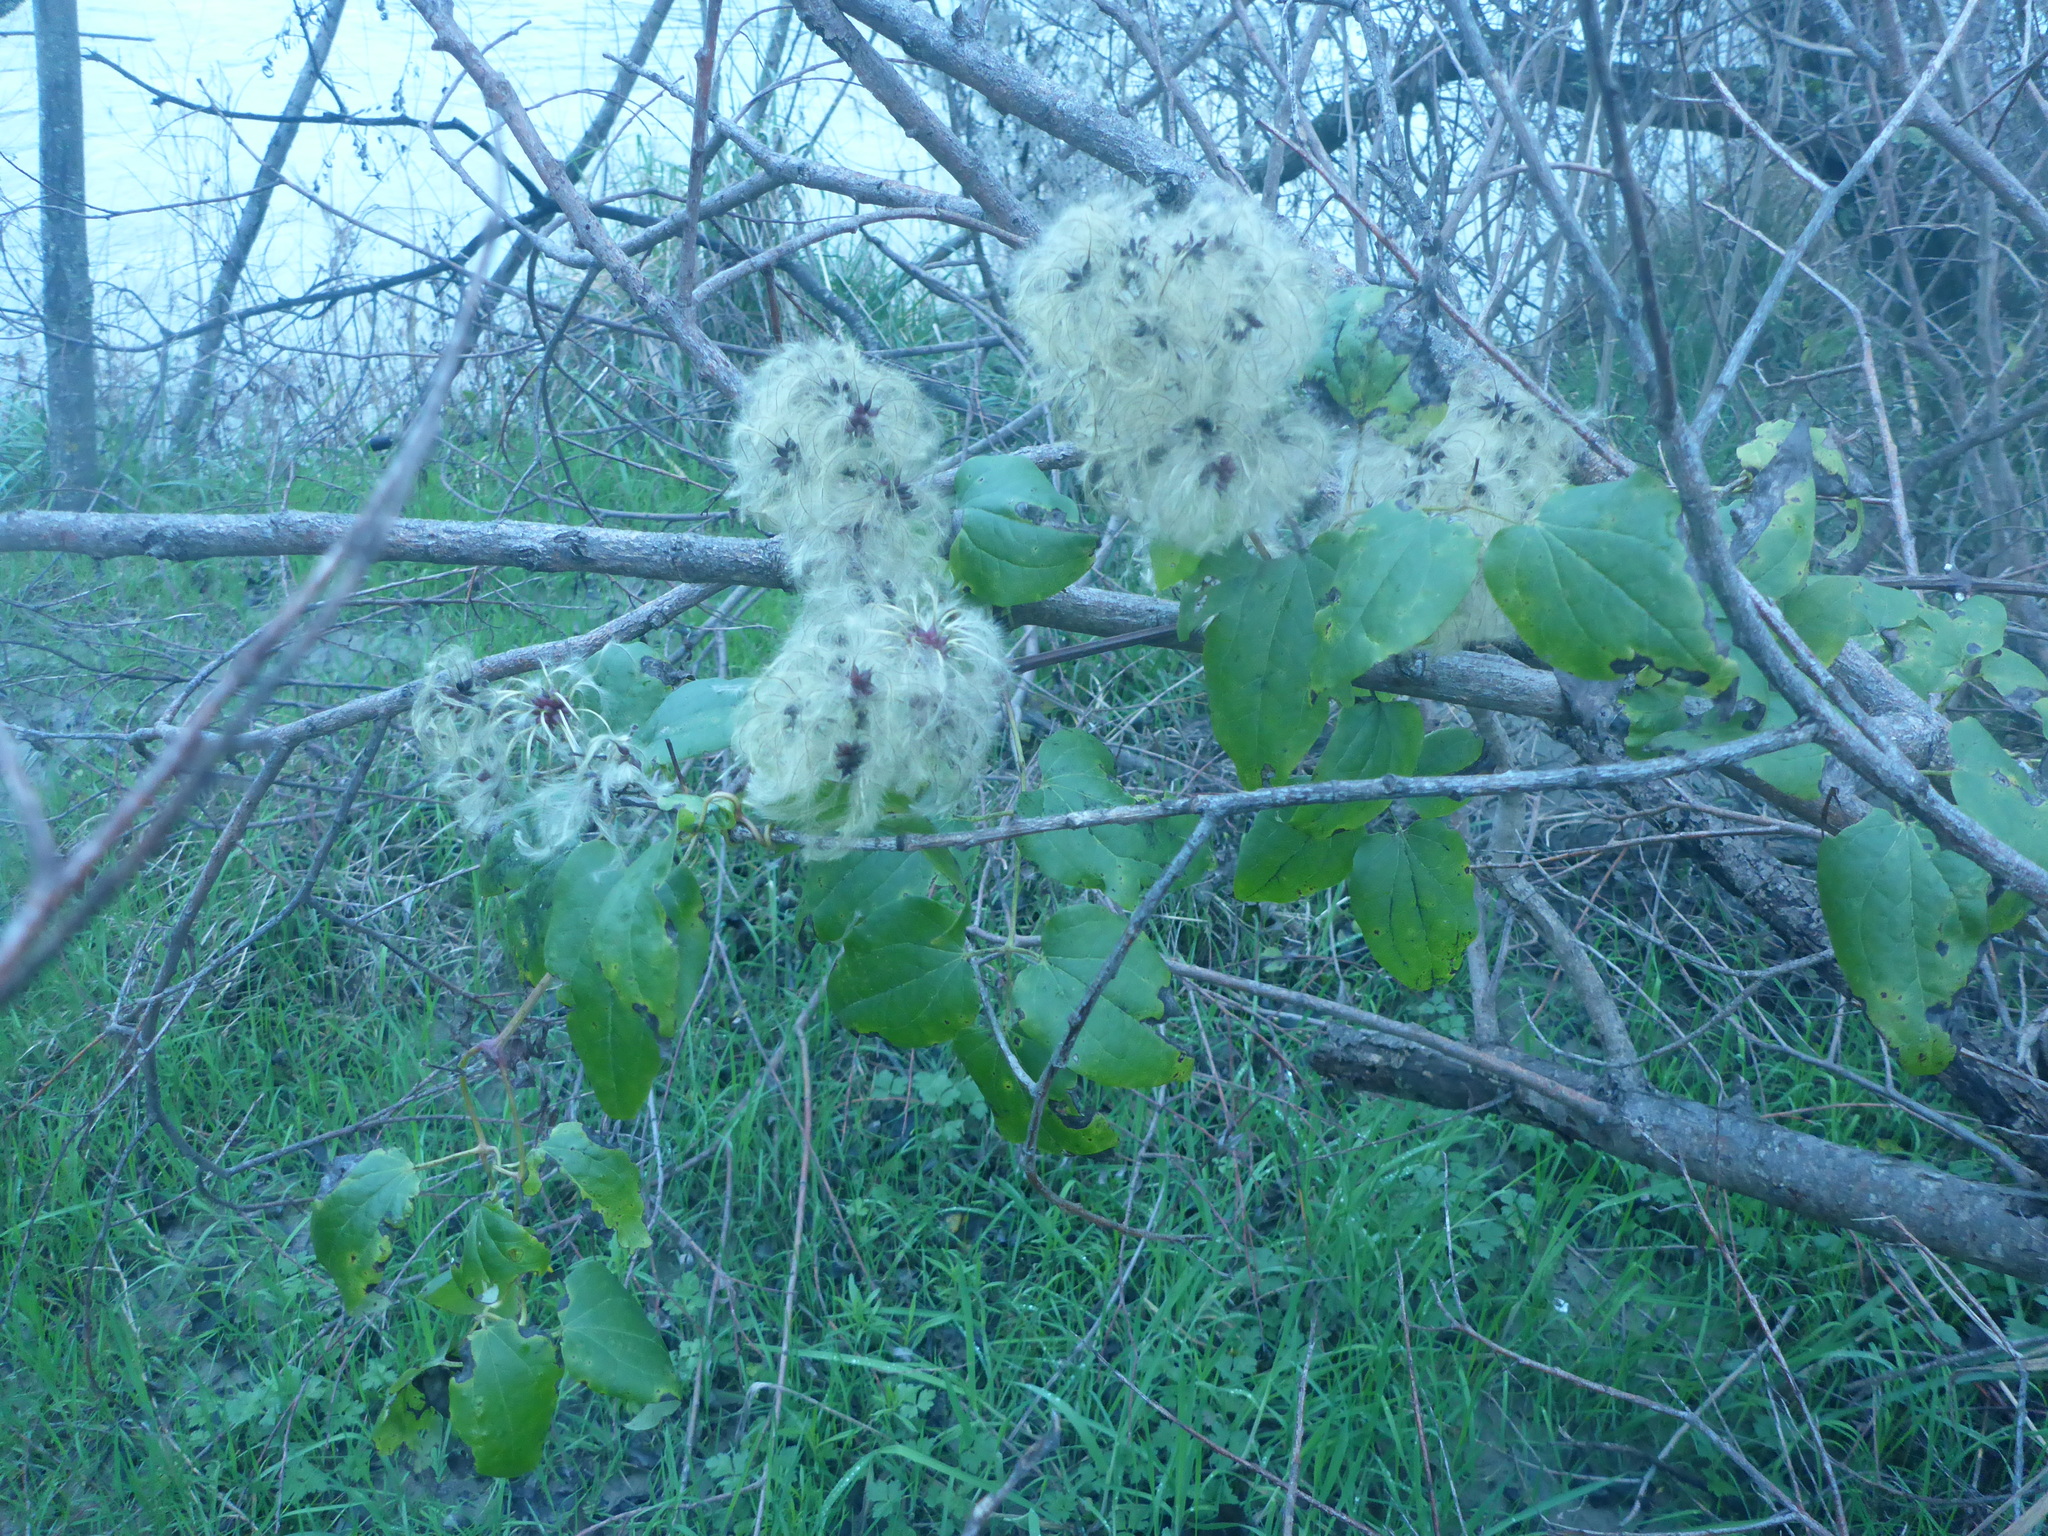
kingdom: Plantae
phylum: Tracheophyta
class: Magnoliopsida
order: Ranunculales
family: Ranunculaceae
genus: Clematis
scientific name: Clematis vitalba
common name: Evergreen clematis
